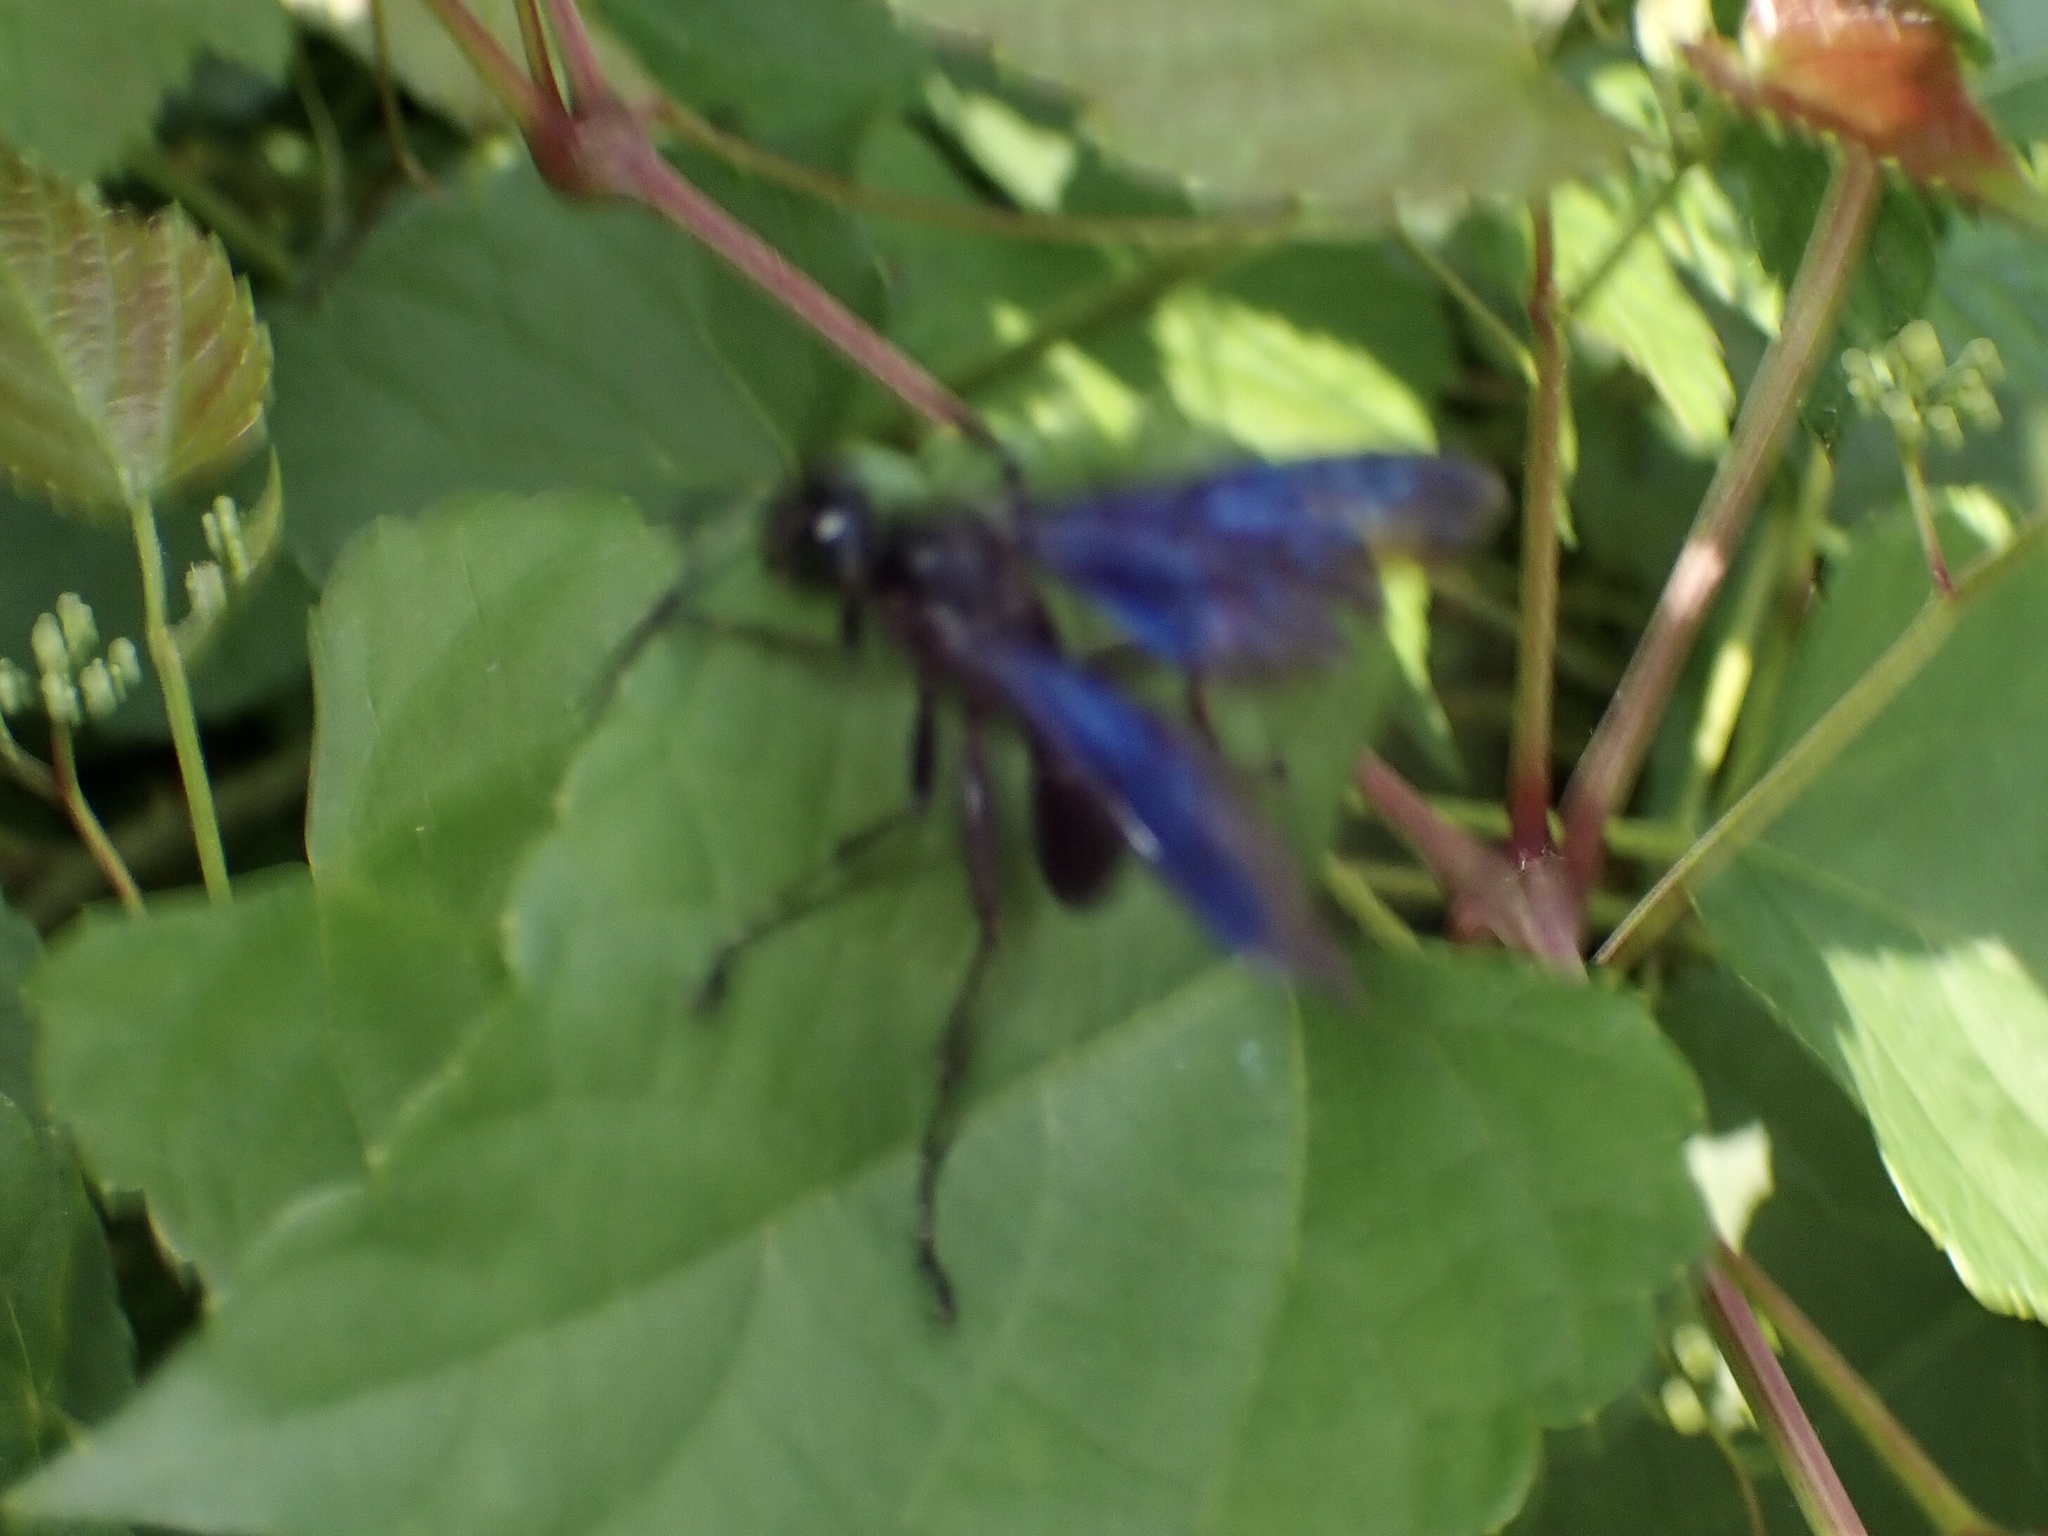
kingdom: Animalia
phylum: Arthropoda
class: Insecta
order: Hymenoptera
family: Sphecidae
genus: Sphex
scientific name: Sphex pensylvanicus
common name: Great black digger wasp
